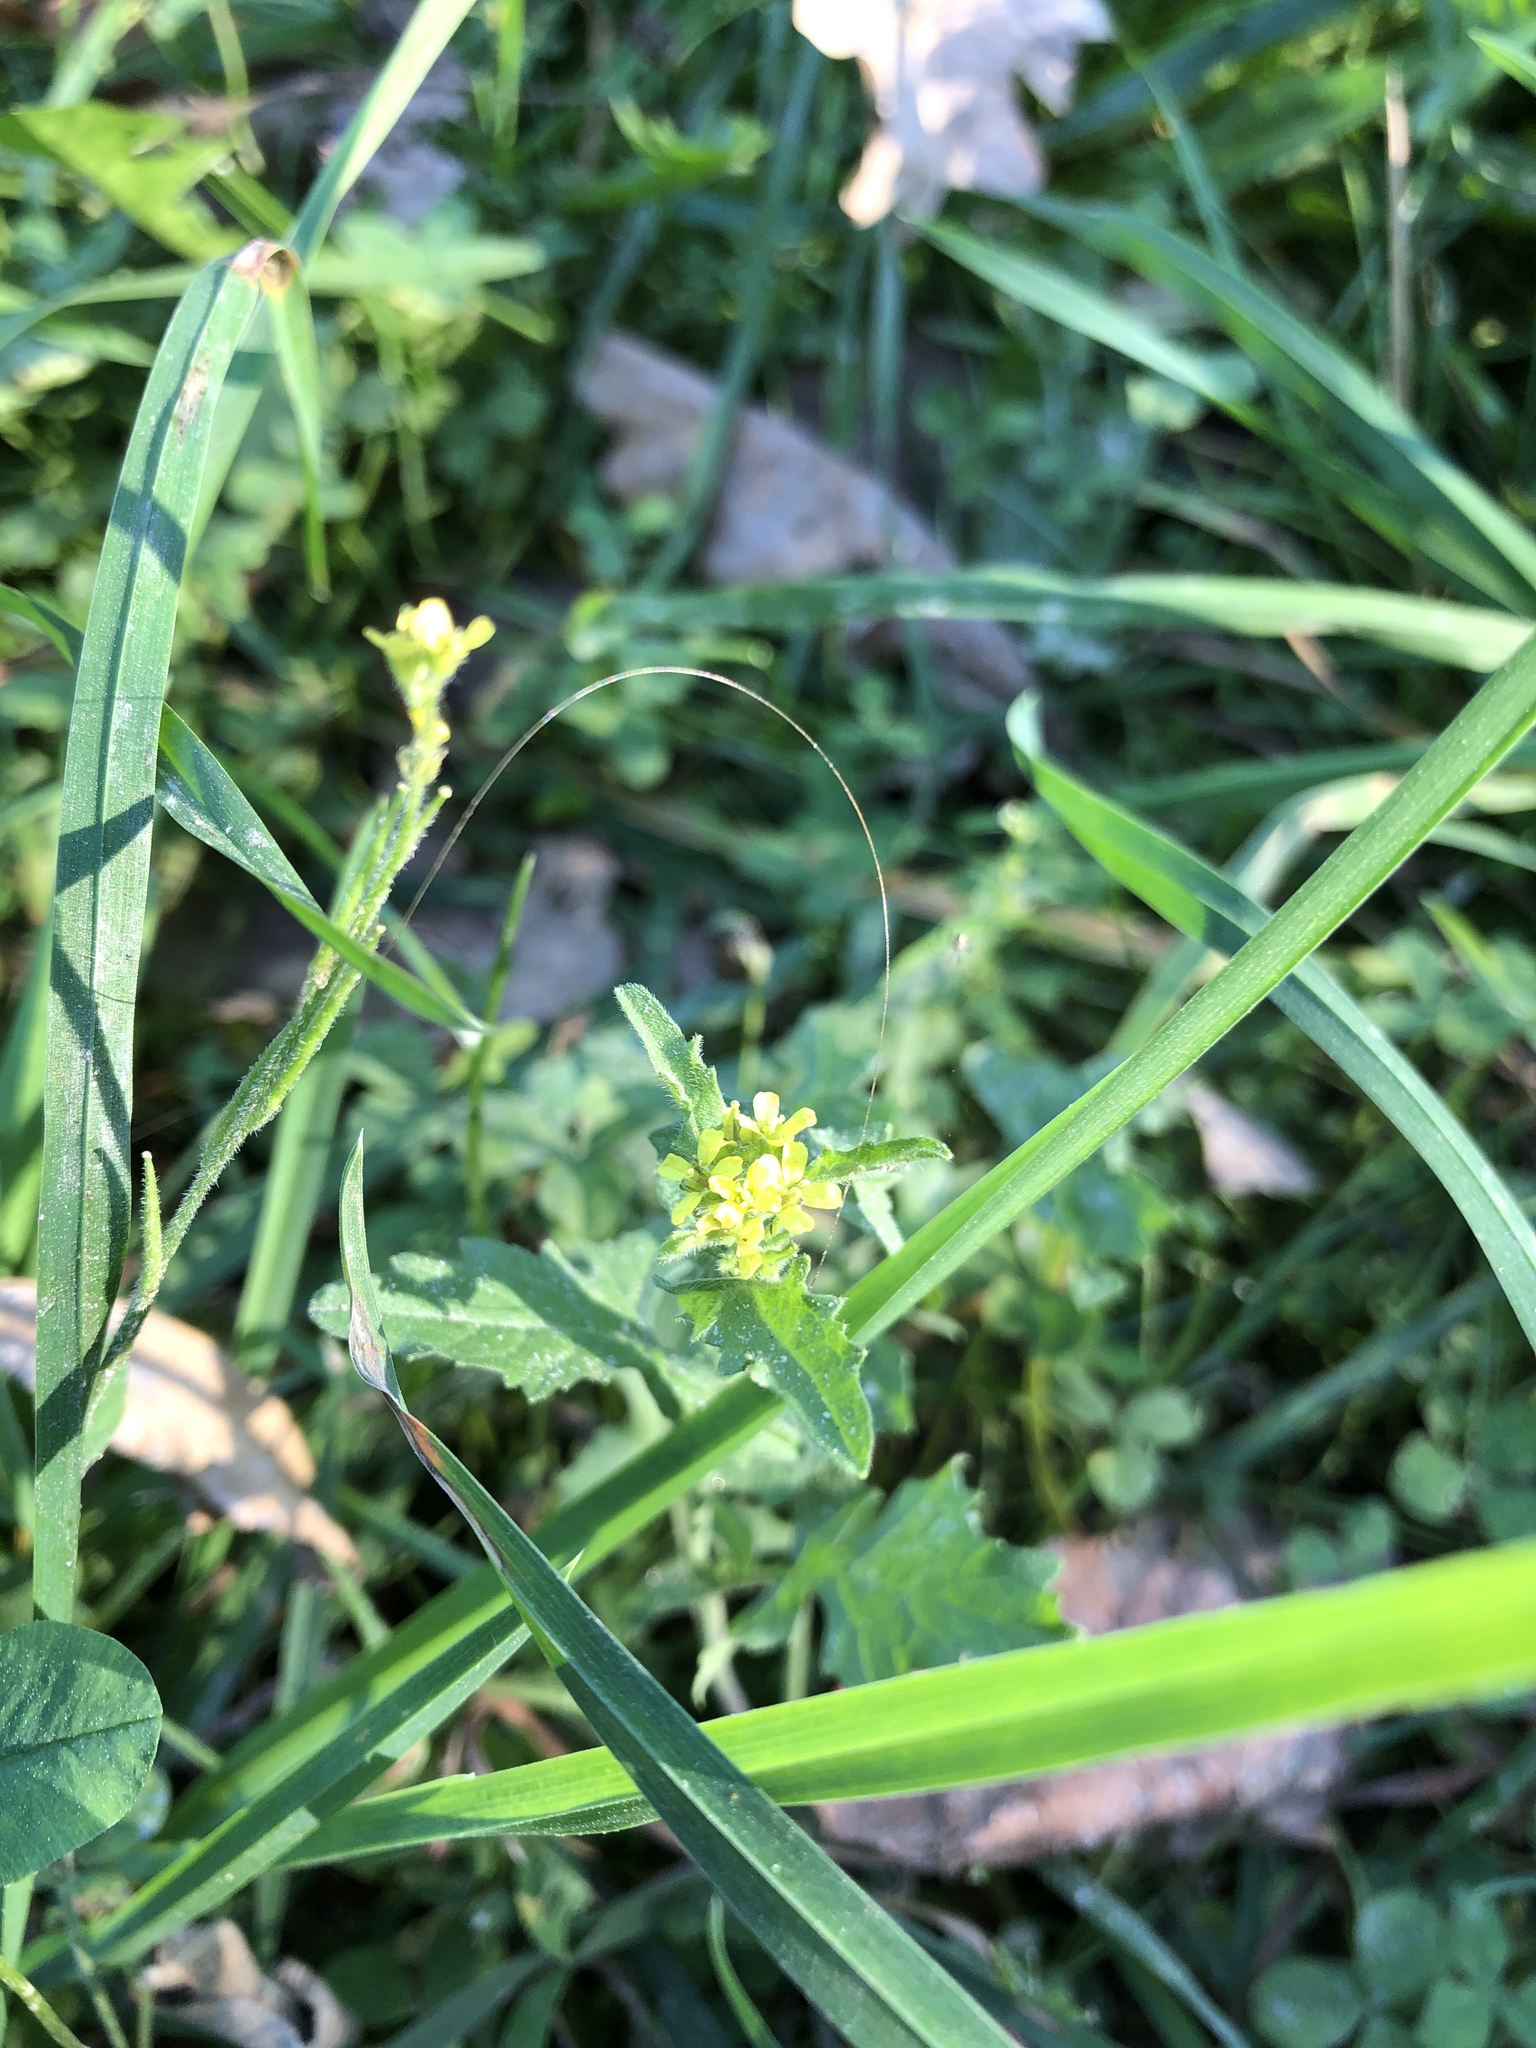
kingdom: Plantae
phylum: Tracheophyta
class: Magnoliopsida
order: Brassicales
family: Brassicaceae
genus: Sisymbrium
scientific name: Sisymbrium officinale
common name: Hedge mustard
